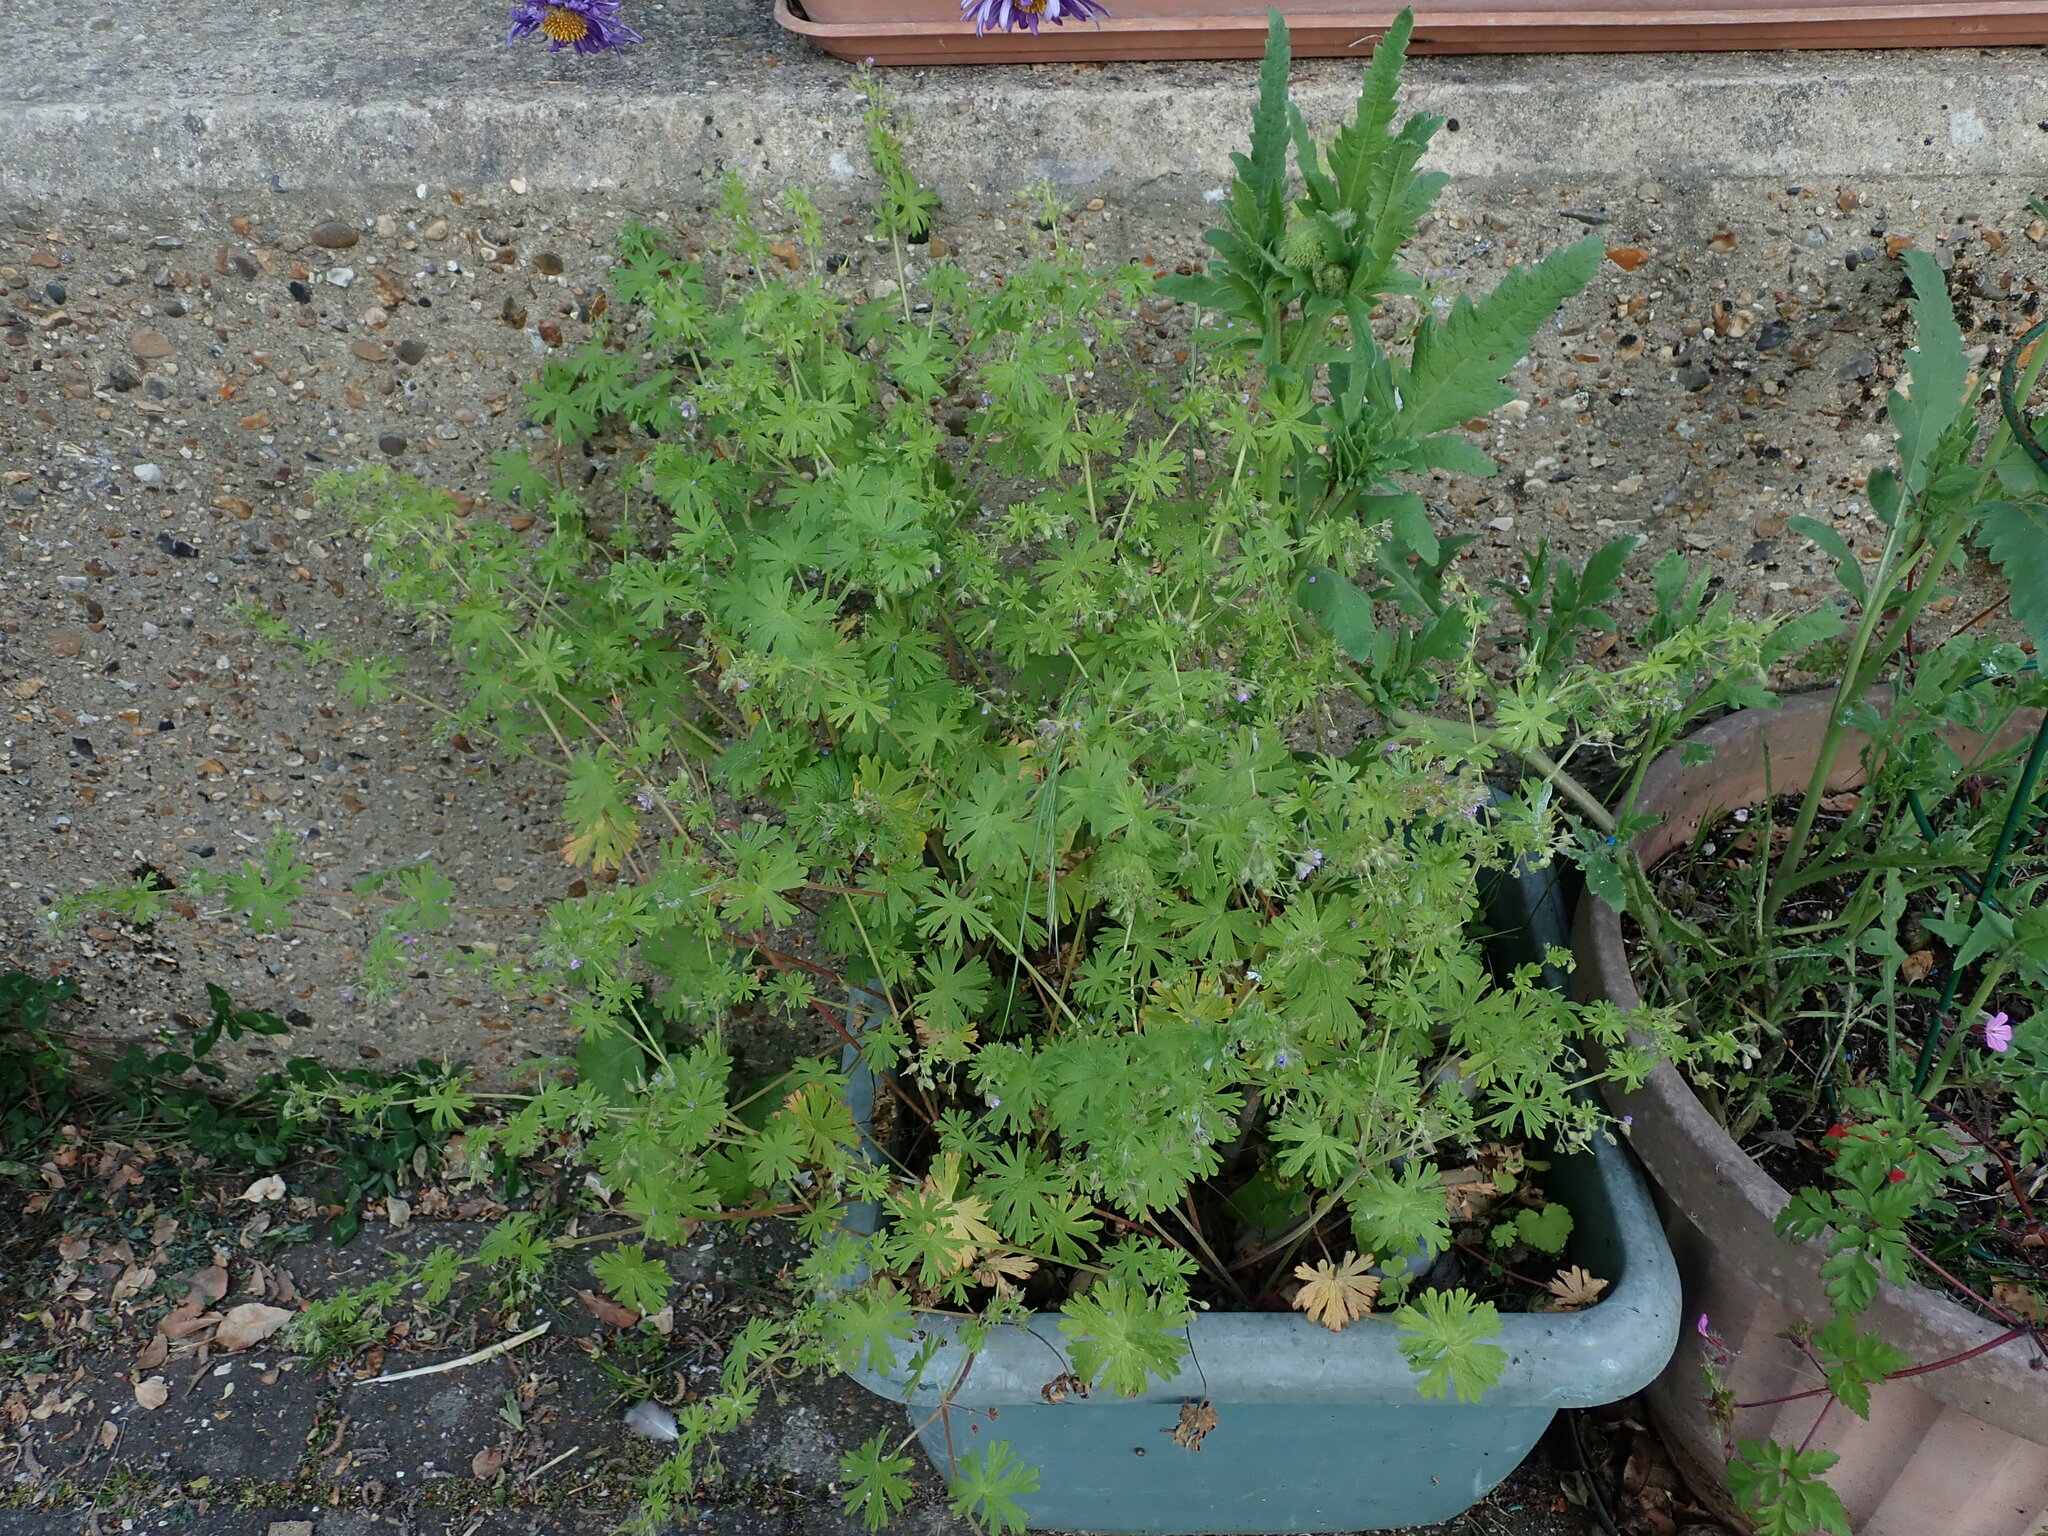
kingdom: Plantae
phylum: Tracheophyta
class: Magnoliopsida
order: Geraniales
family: Geraniaceae
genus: Geranium
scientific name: Geranium pusillum
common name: Small geranium
